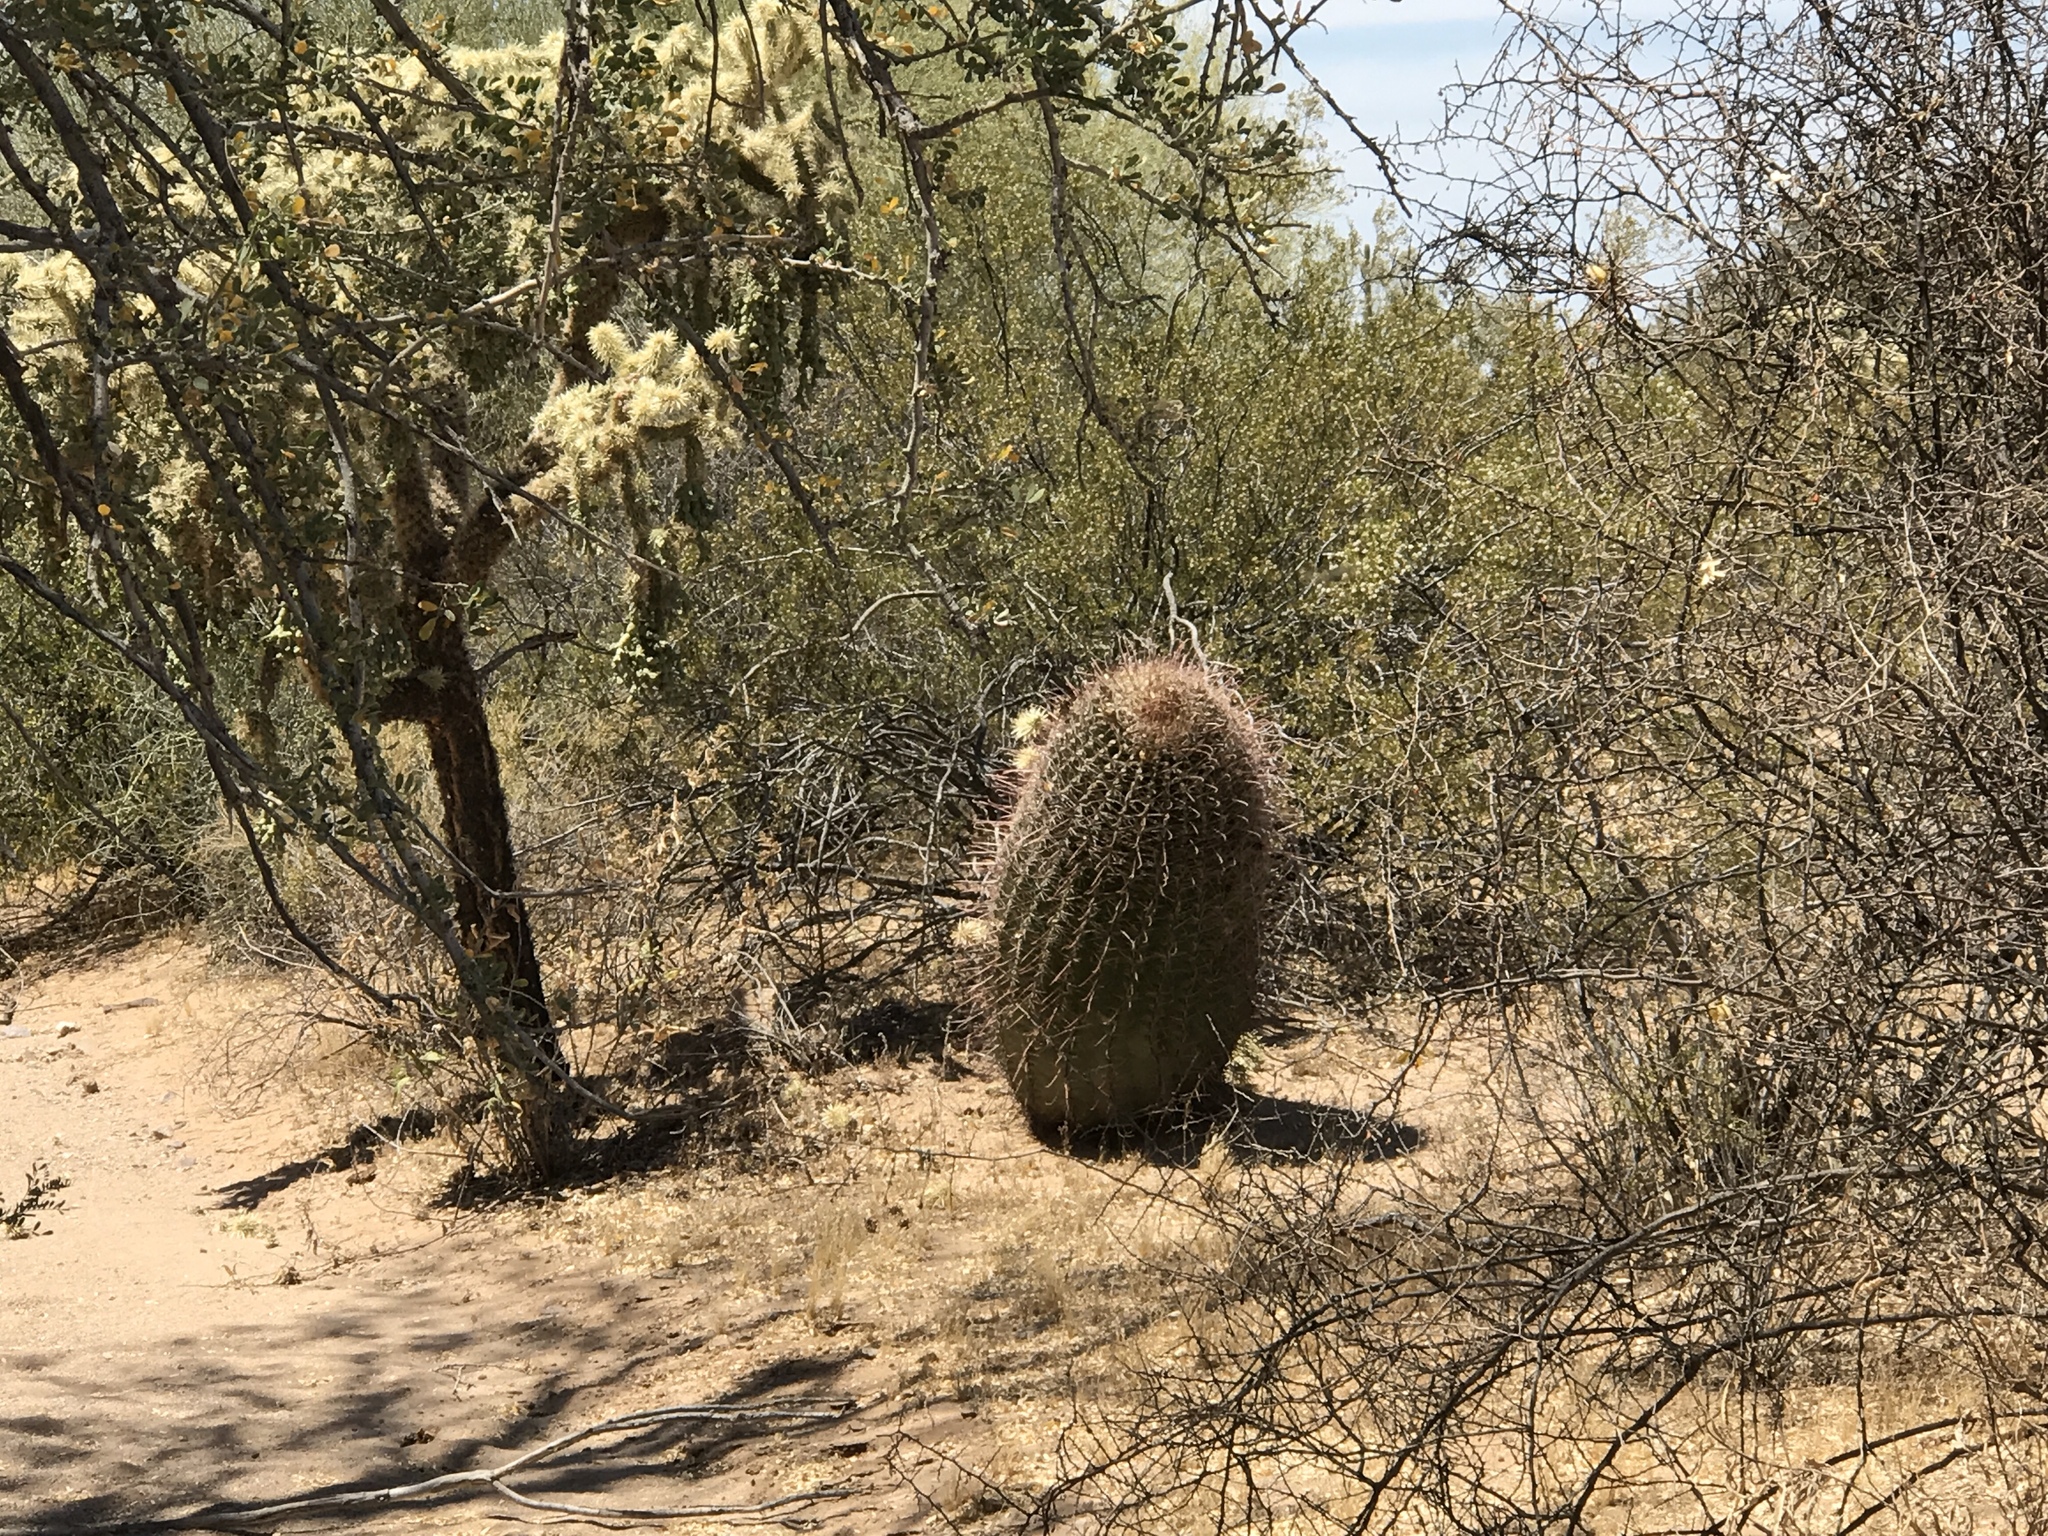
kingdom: Plantae
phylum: Tracheophyta
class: Magnoliopsida
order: Caryophyllales
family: Cactaceae
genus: Ferocactus
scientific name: Ferocactus wislizeni
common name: Candy barrel cactus
